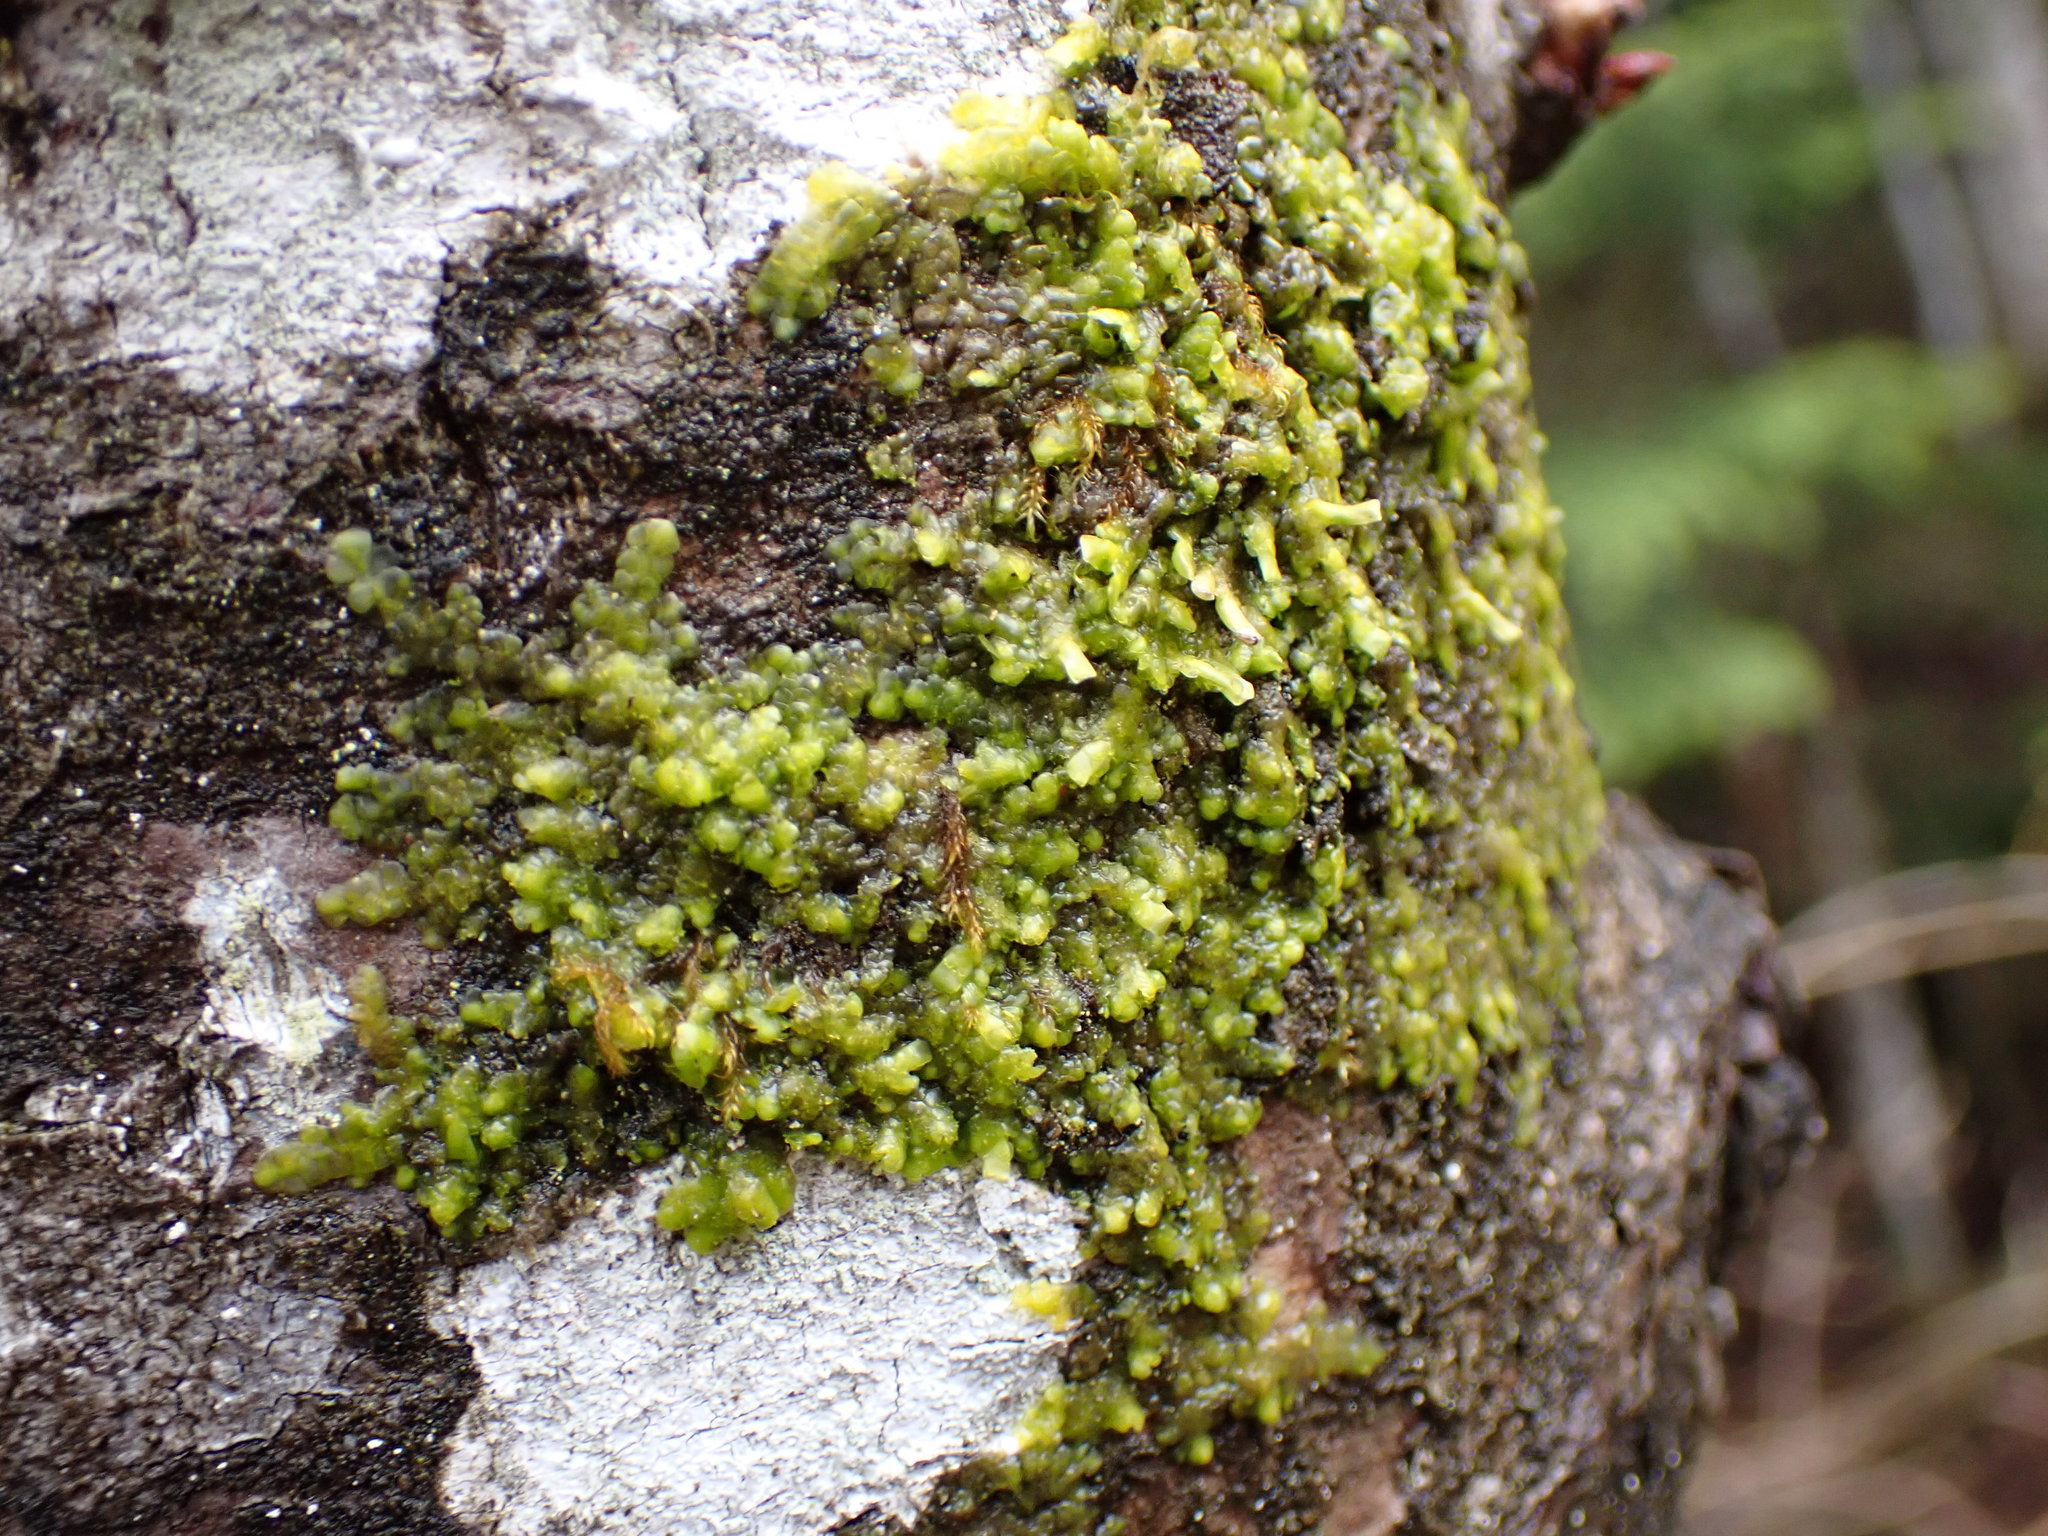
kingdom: Plantae
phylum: Marchantiophyta
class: Jungermanniopsida
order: Porellales
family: Radulaceae
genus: Radula
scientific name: Radula complanata
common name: Flat-leaved scalewort
